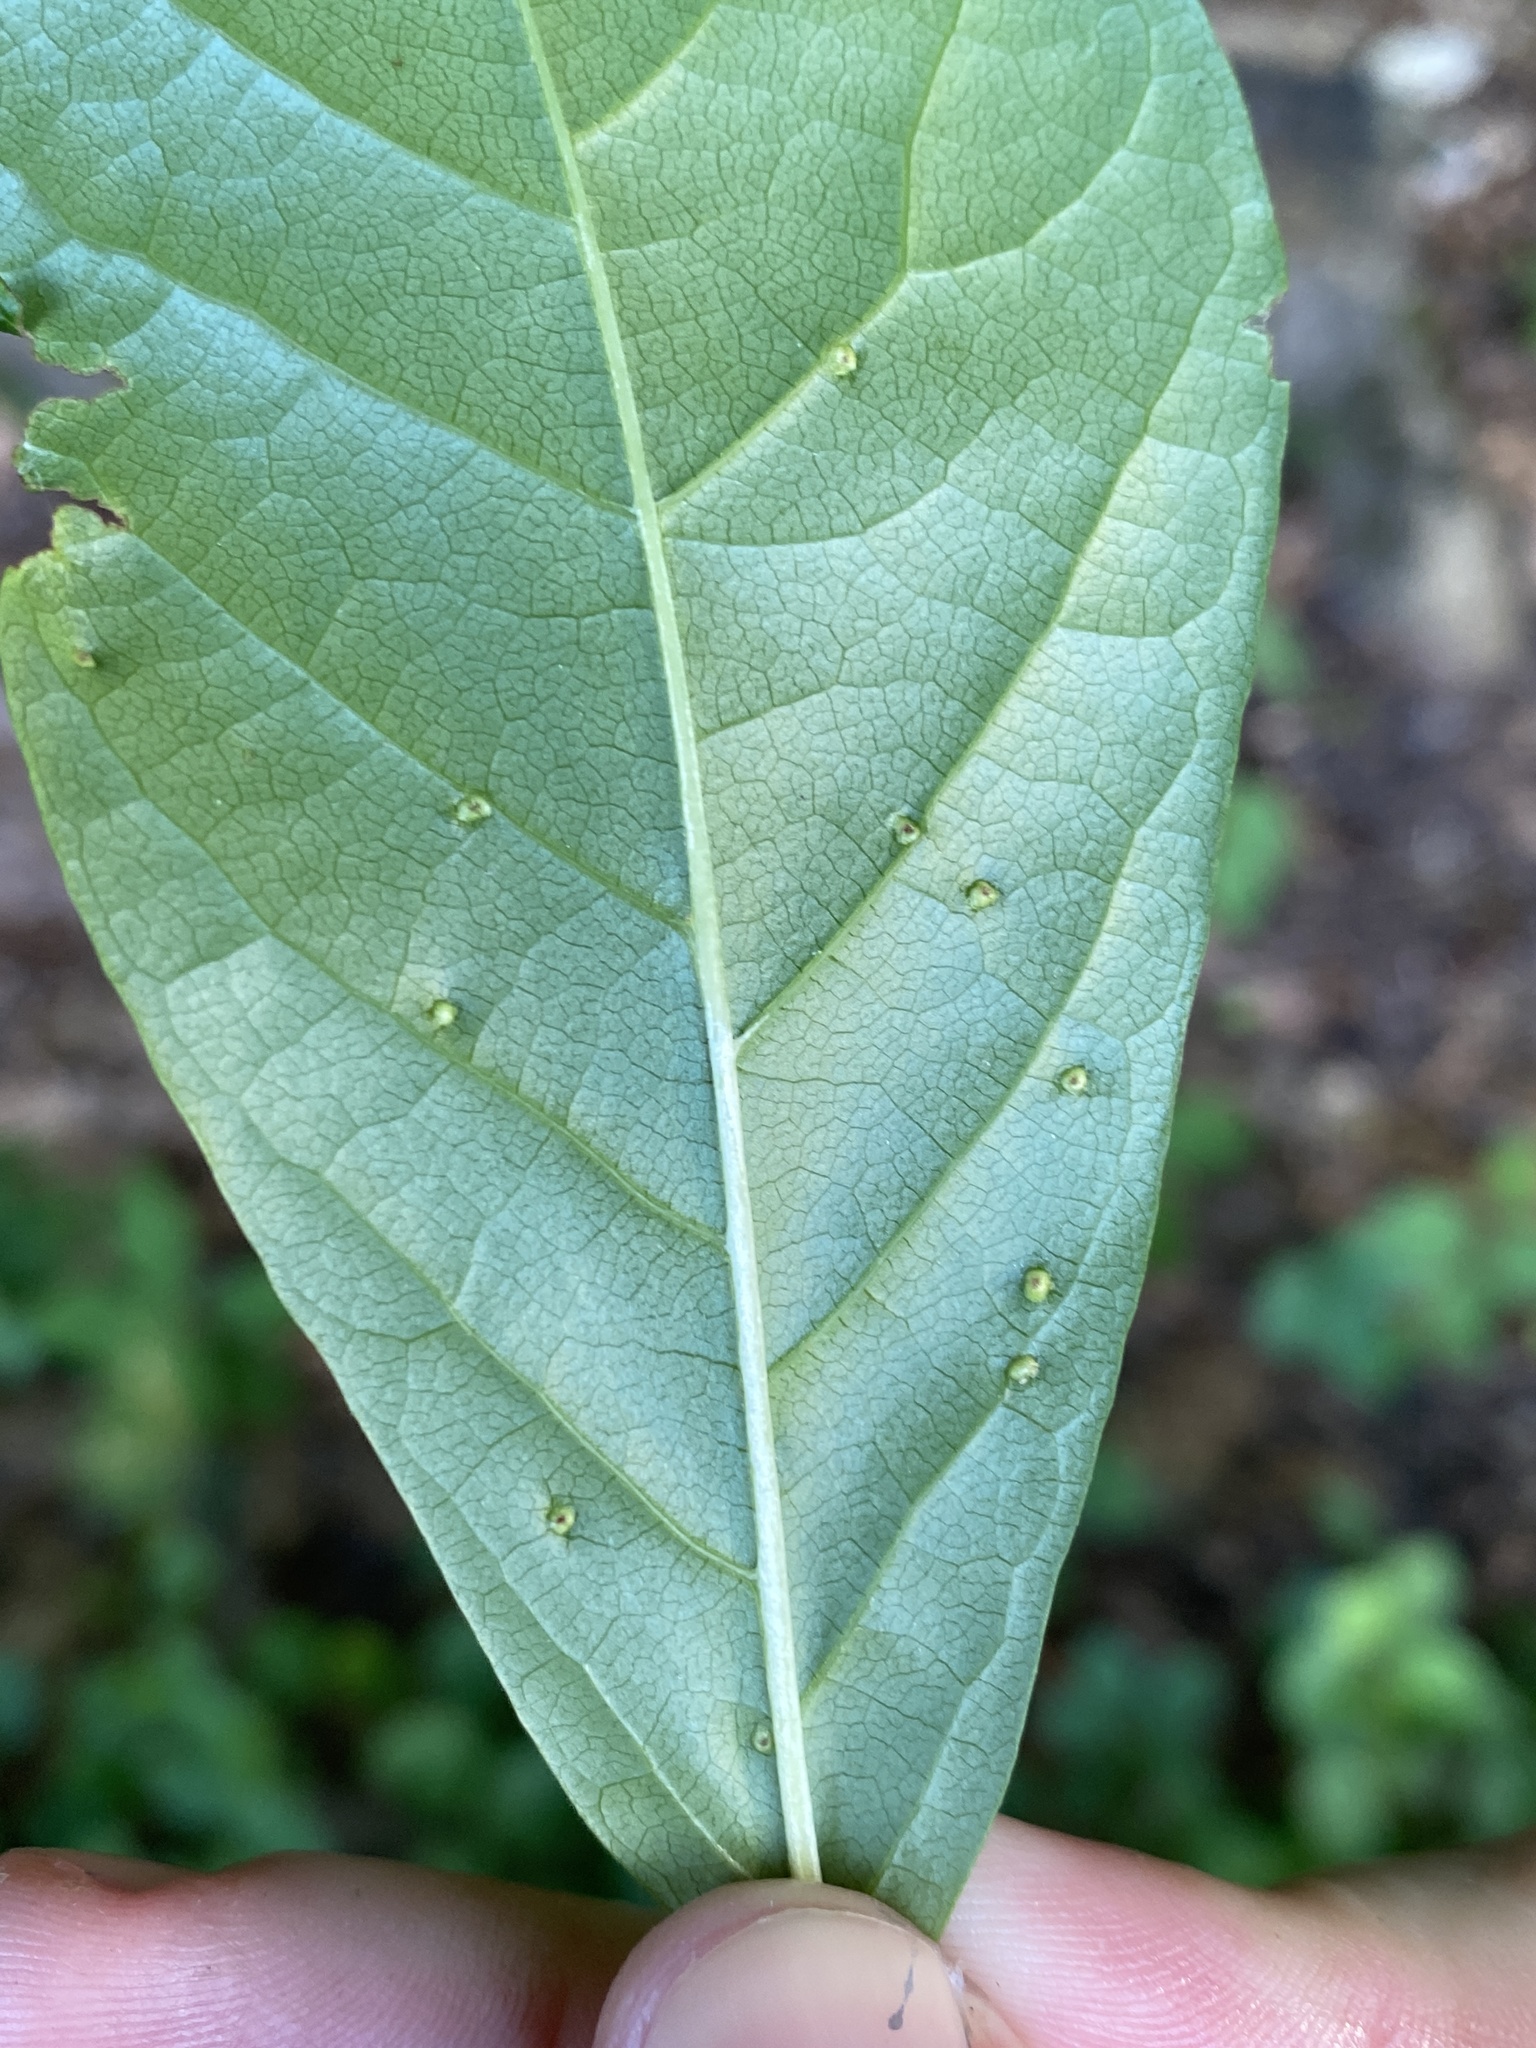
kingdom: Animalia
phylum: Arthropoda
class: Arachnida
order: Trombidiformes
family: Eriophyidae
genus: Aceria
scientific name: Aceria
